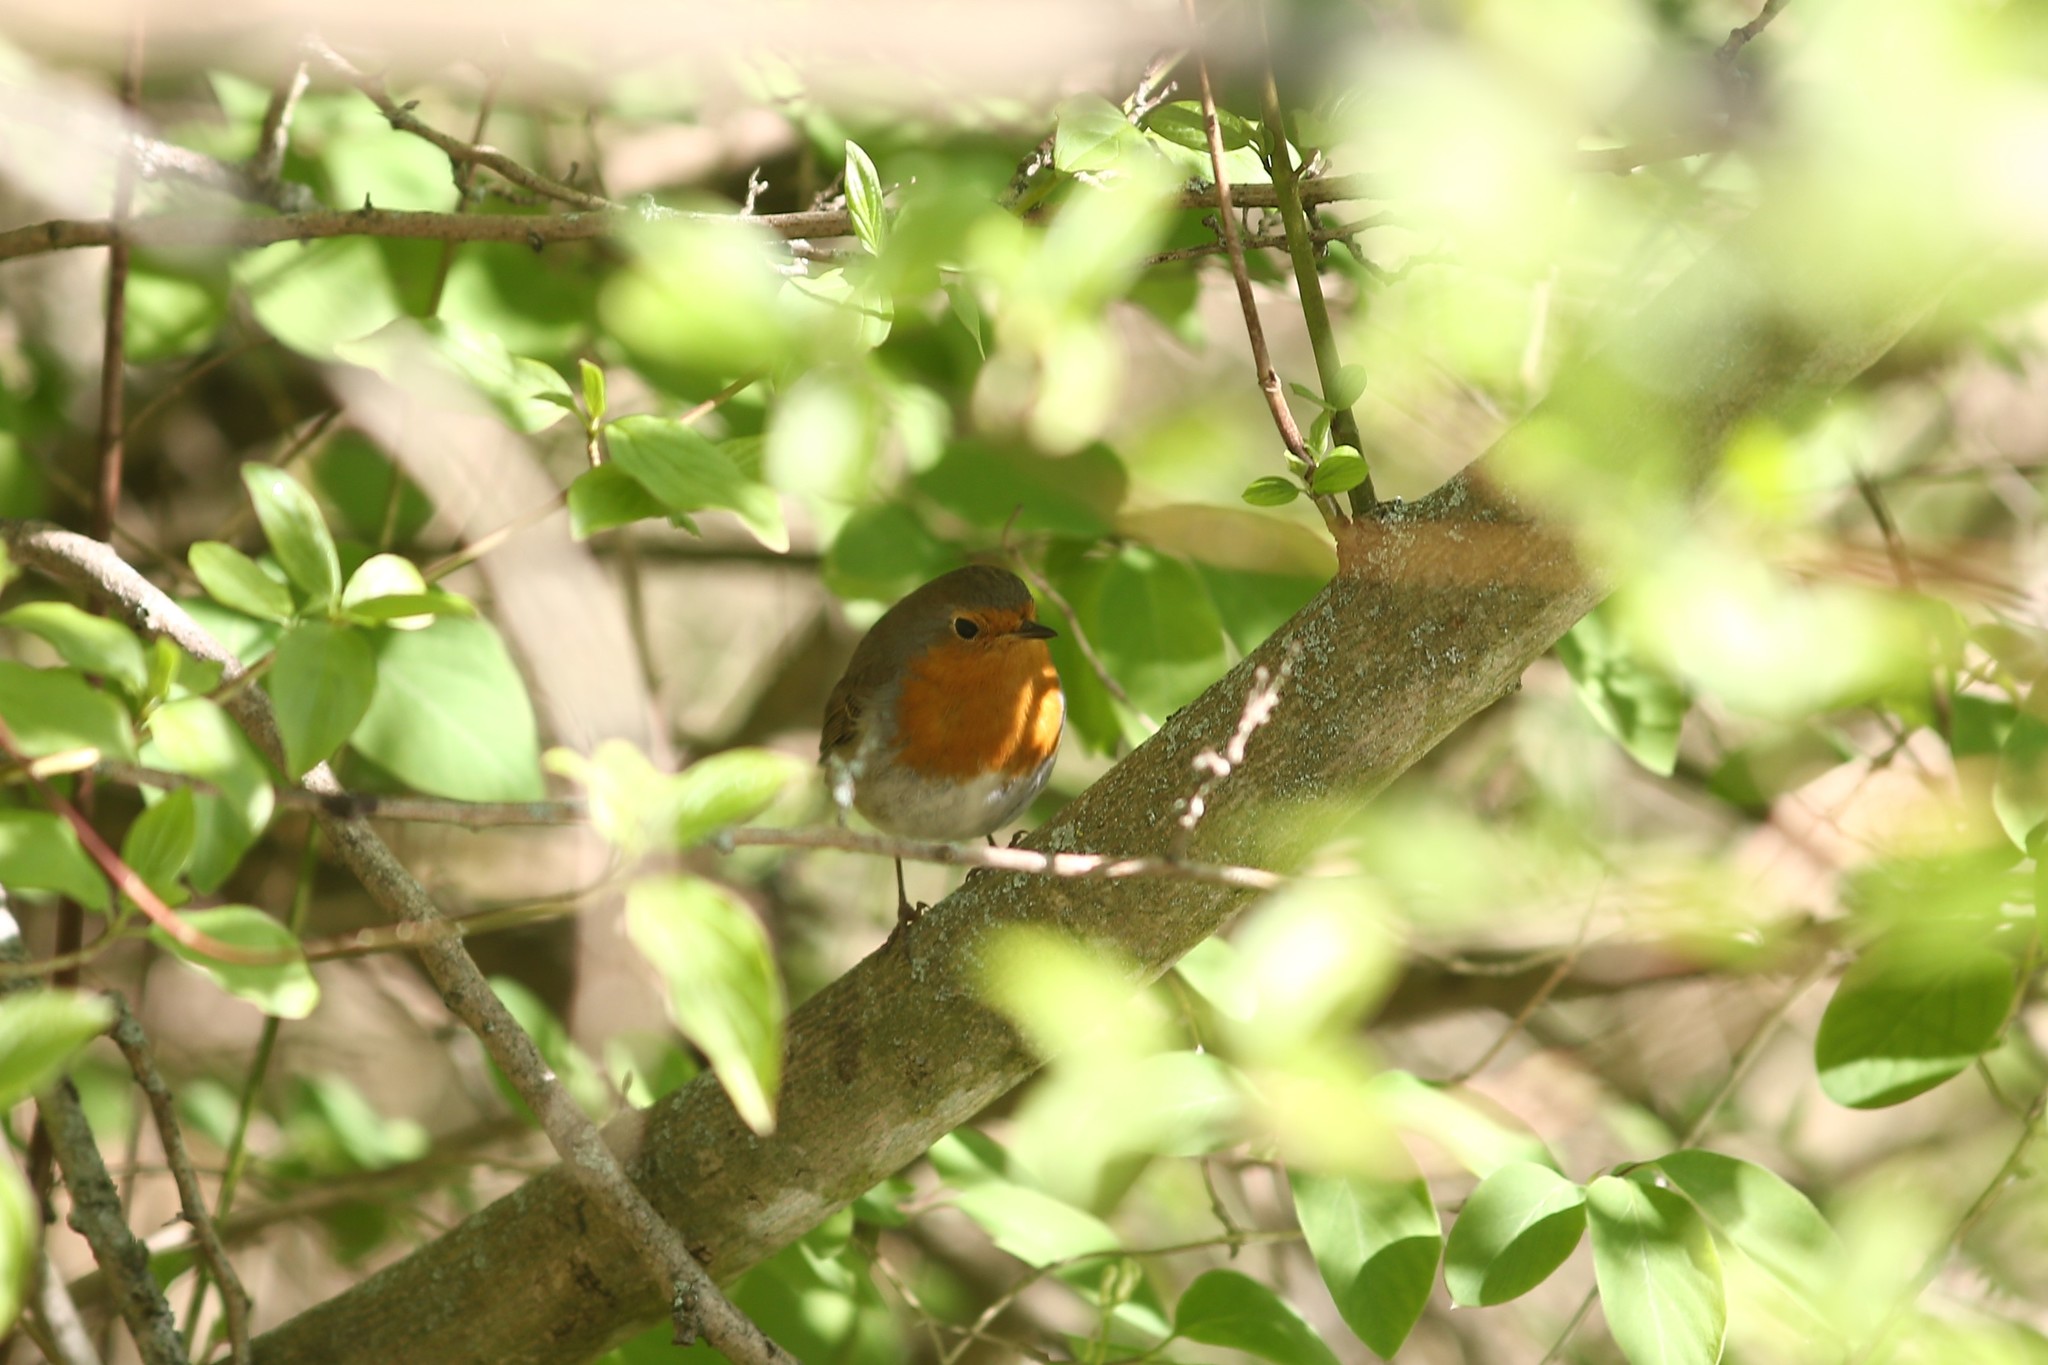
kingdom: Animalia
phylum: Chordata
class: Aves
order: Passeriformes
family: Muscicapidae
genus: Erithacus
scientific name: Erithacus rubecula
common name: European robin
